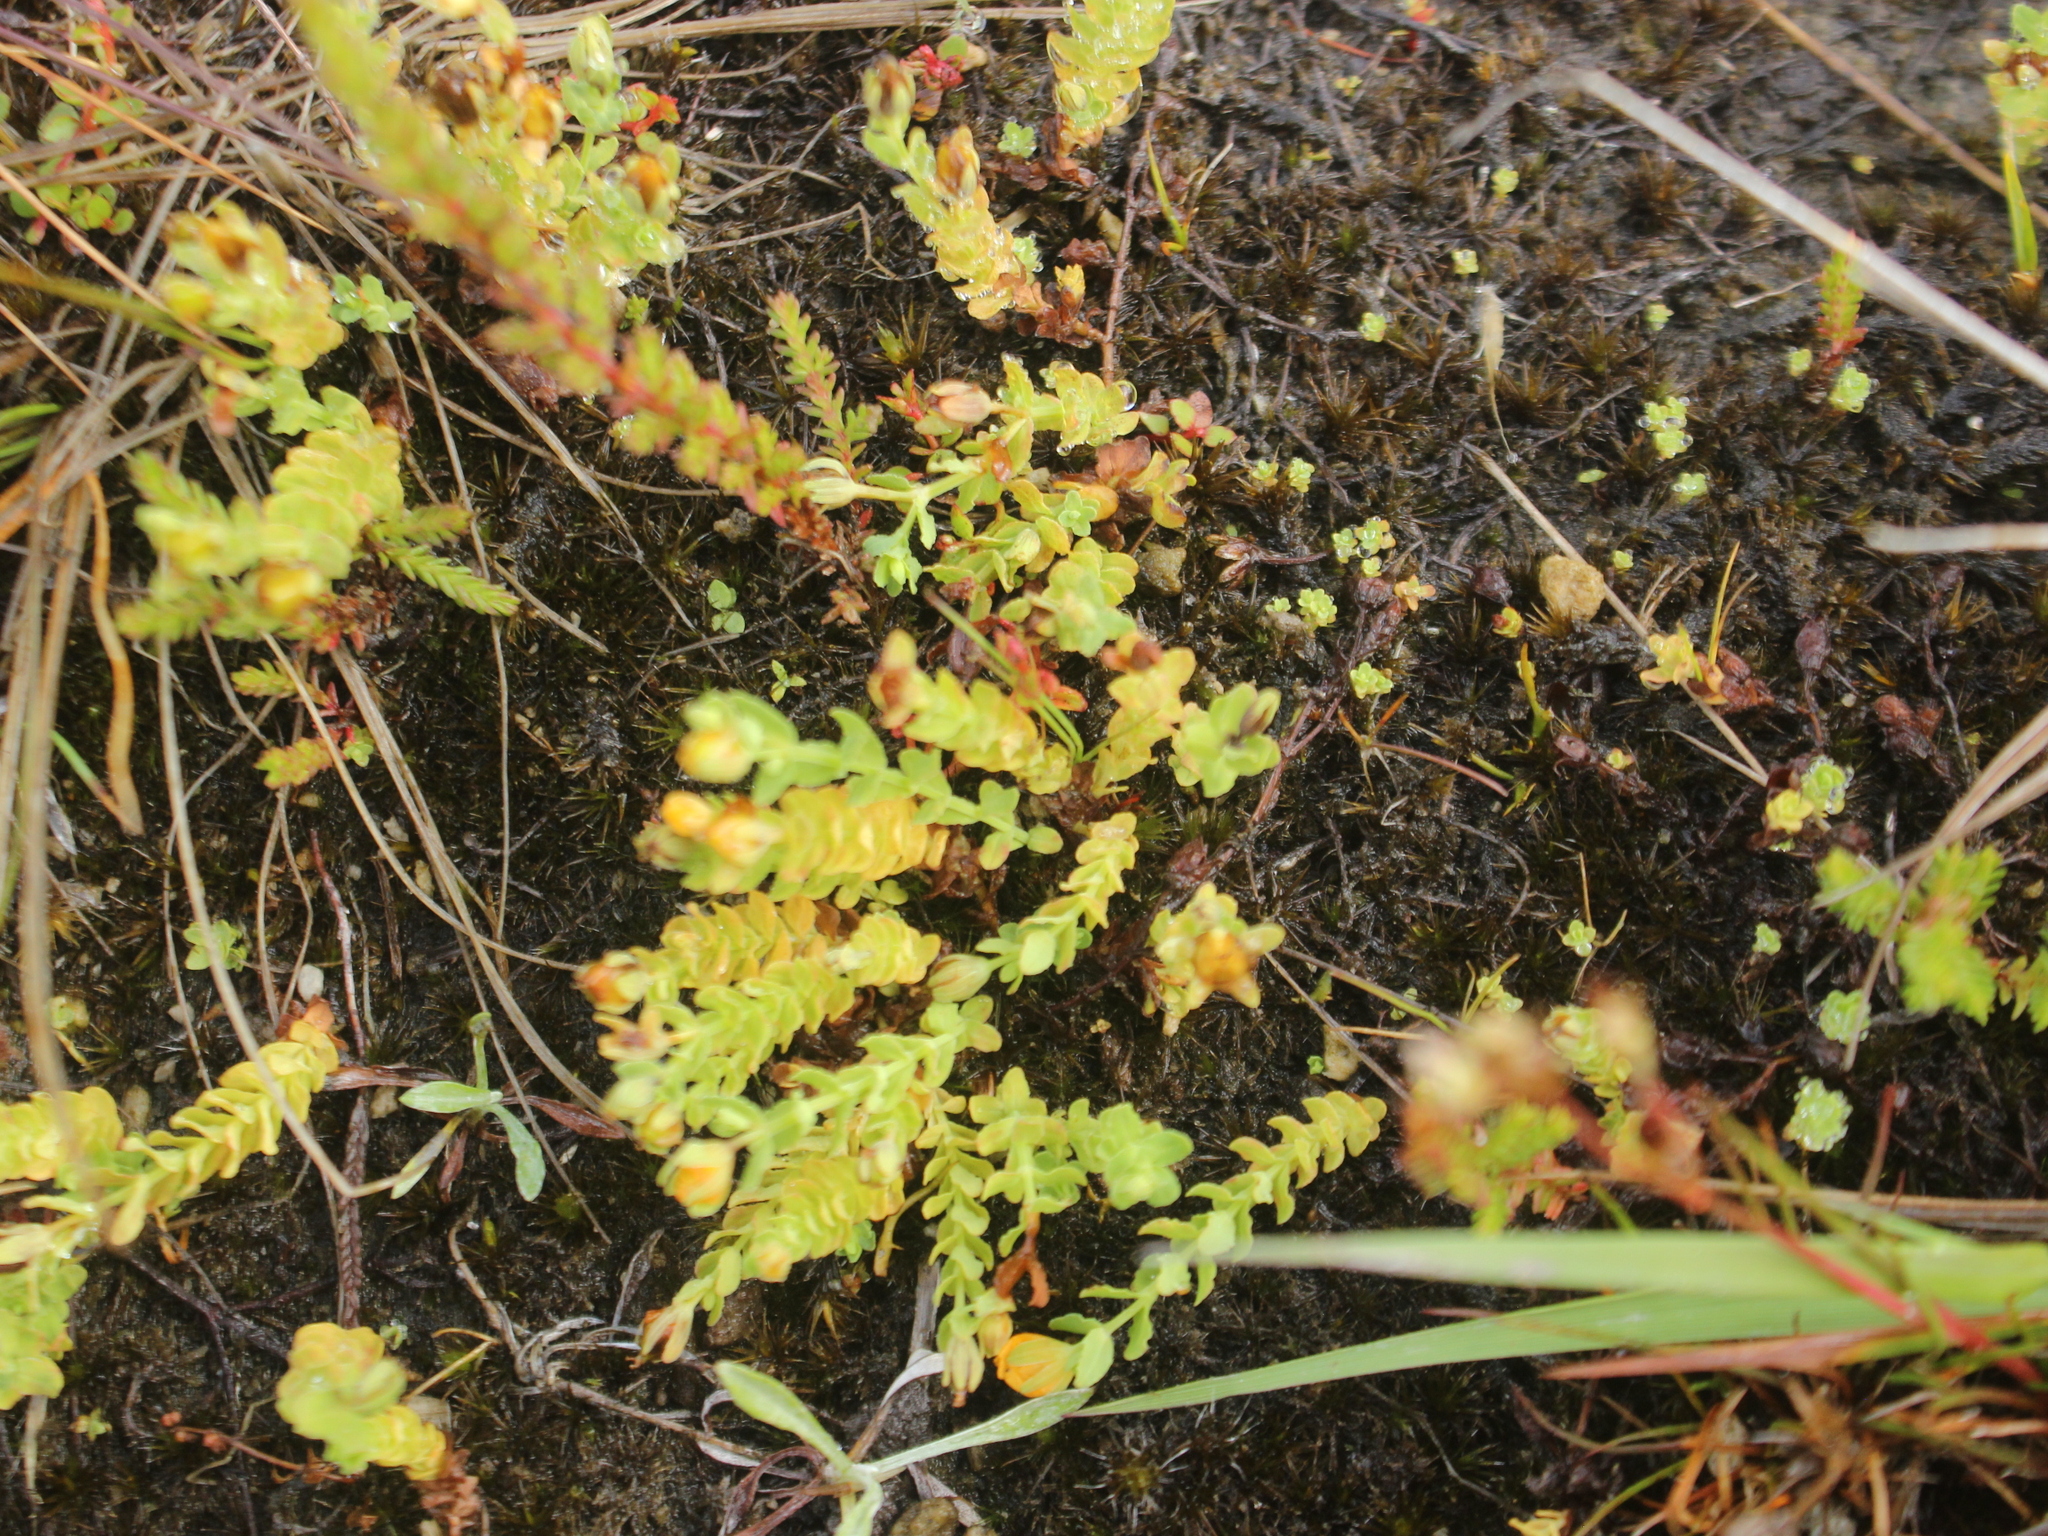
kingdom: Plantae
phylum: Tracheophyta
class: Magnoliopsida
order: Malpighiales
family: Hypericaceae
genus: Hypericum
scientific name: Hypericum japonicum
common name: Matted st. john's-wort
